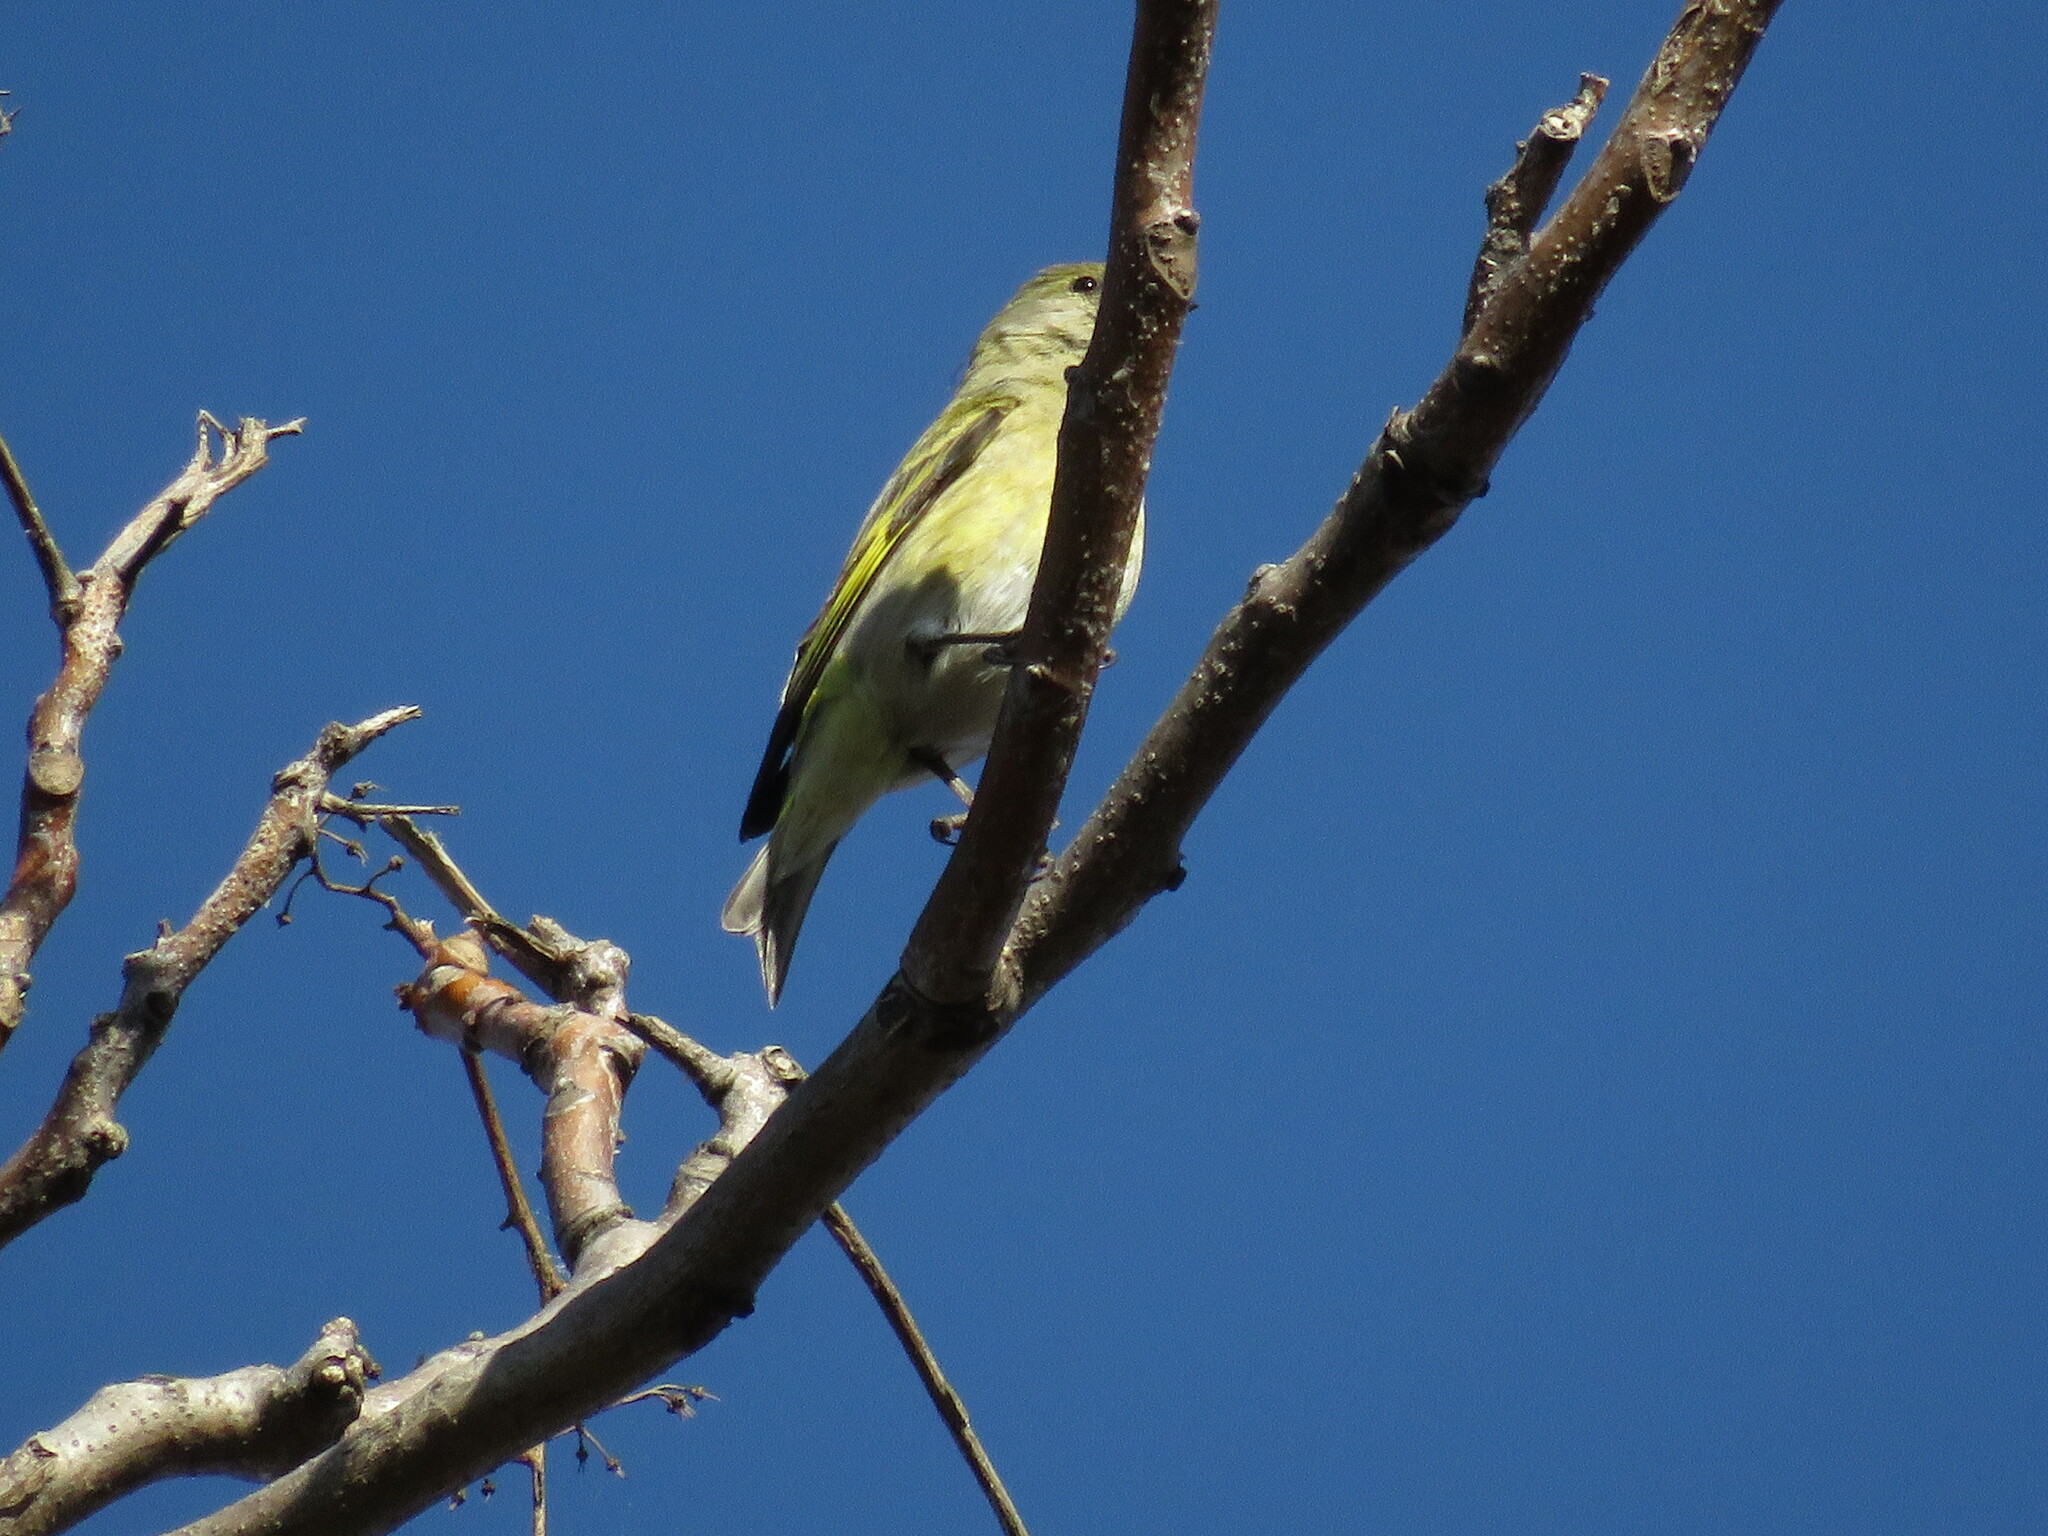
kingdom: Animalia
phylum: Chordata
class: Aves
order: Passeriformes
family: Fringillidae
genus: Spinus
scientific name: Spinus magellanicus
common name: Hooded siskin
